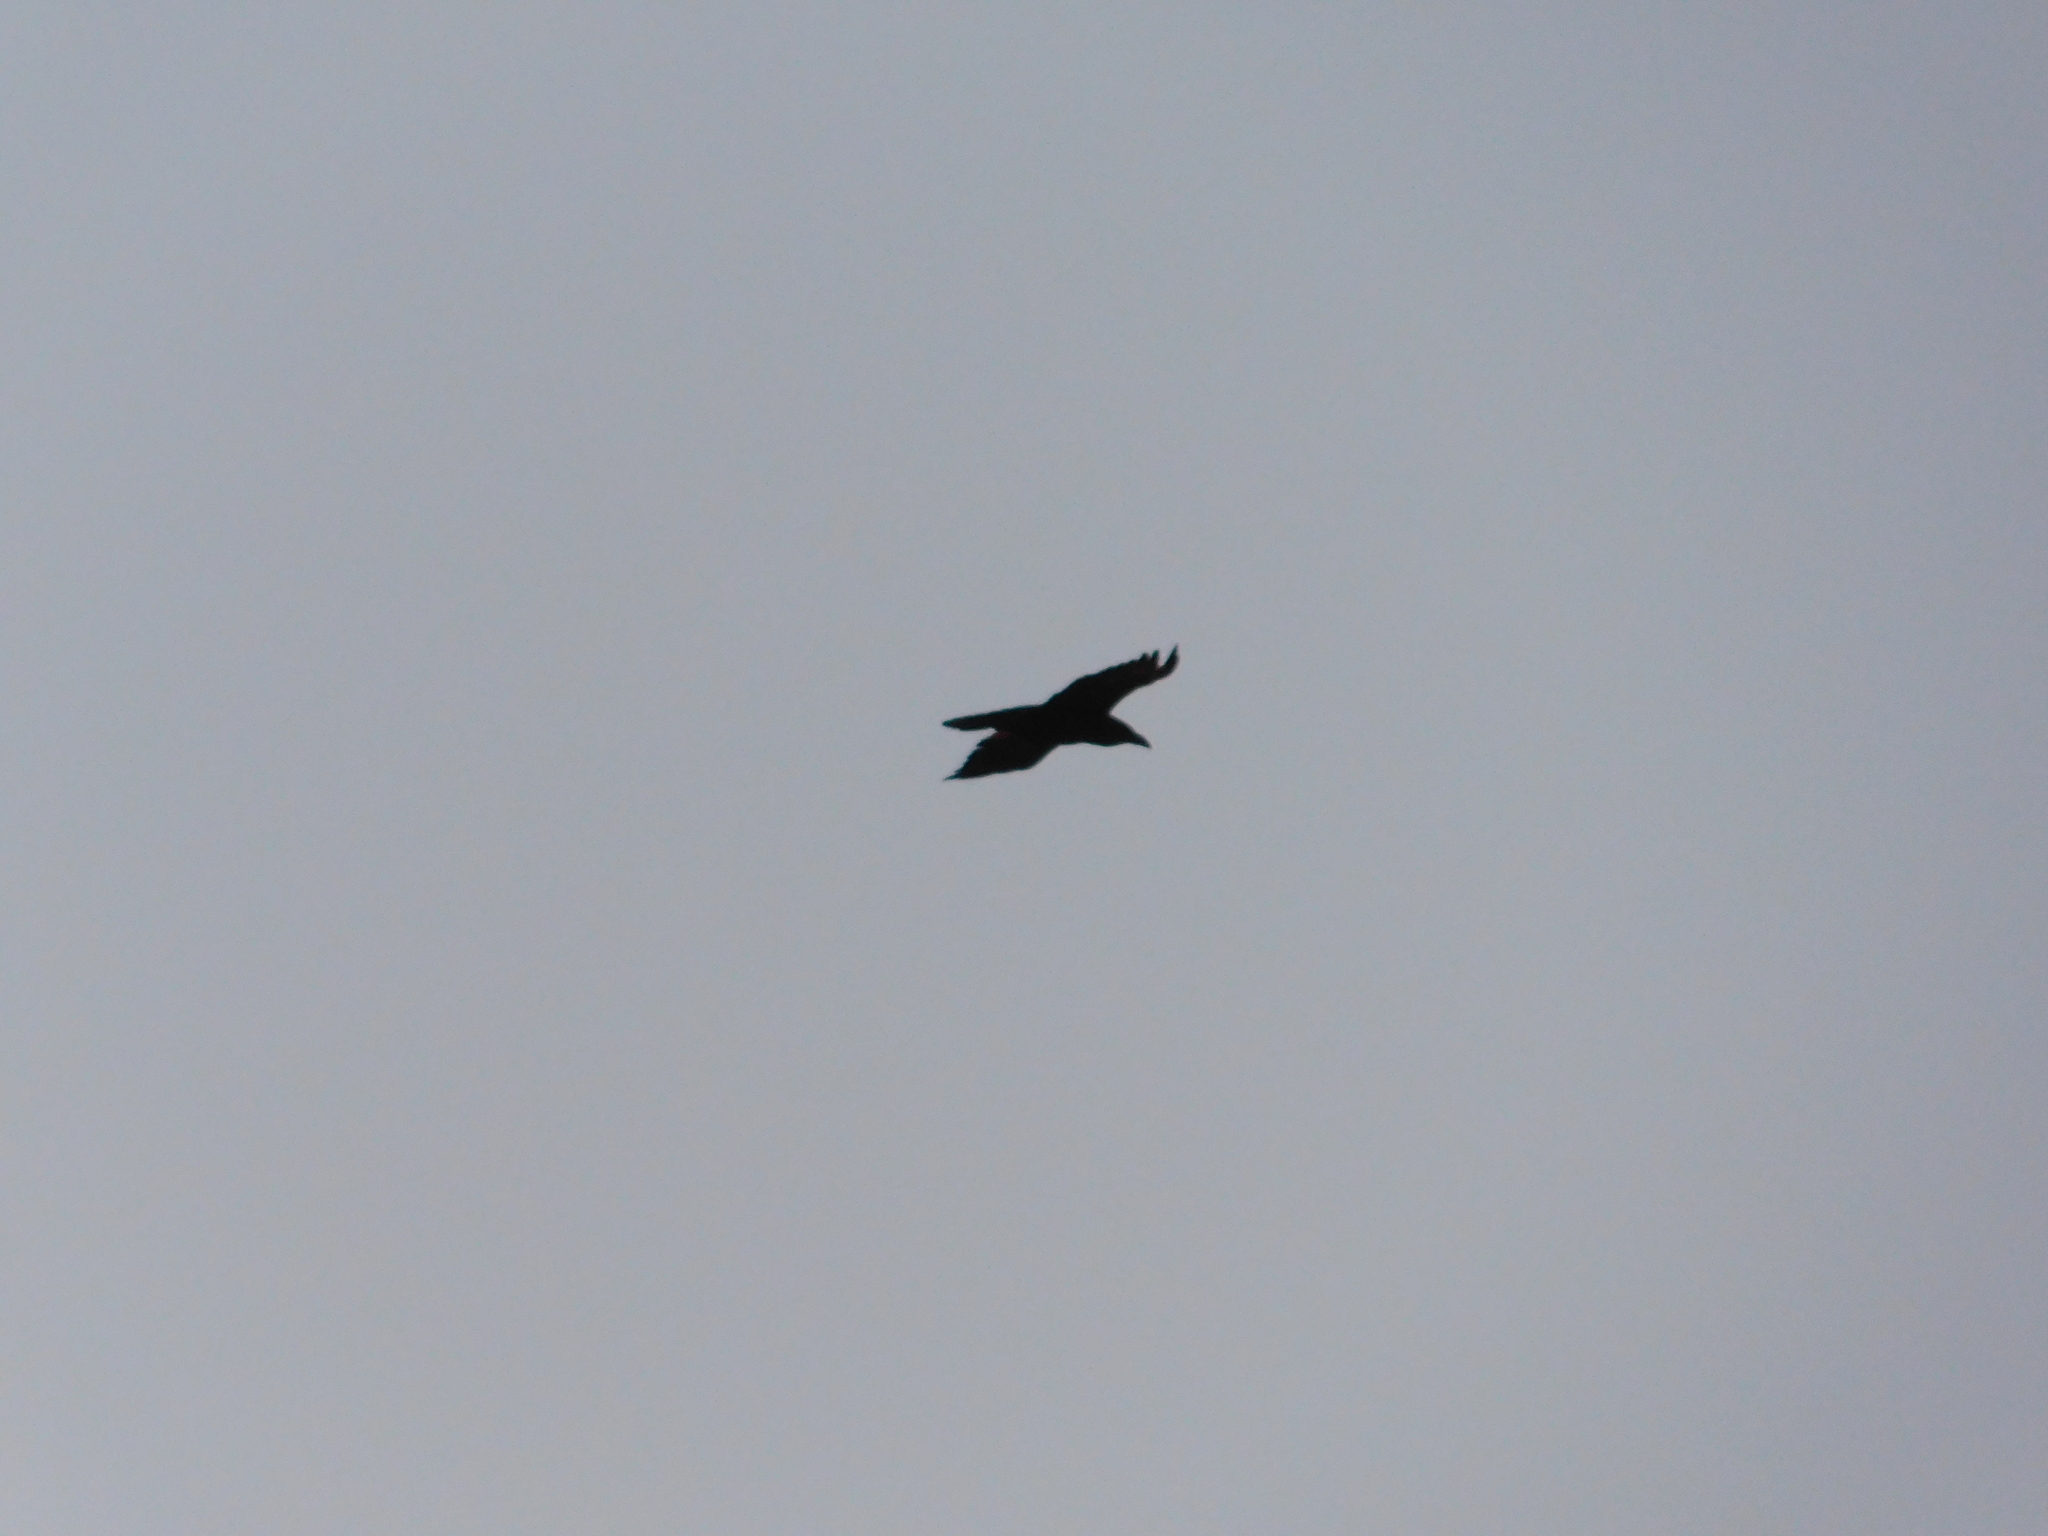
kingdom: Animalia
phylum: Chordata
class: Aves
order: Passeriformes
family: Corvidae
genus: Corvus
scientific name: Corvus corax
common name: Common raven
